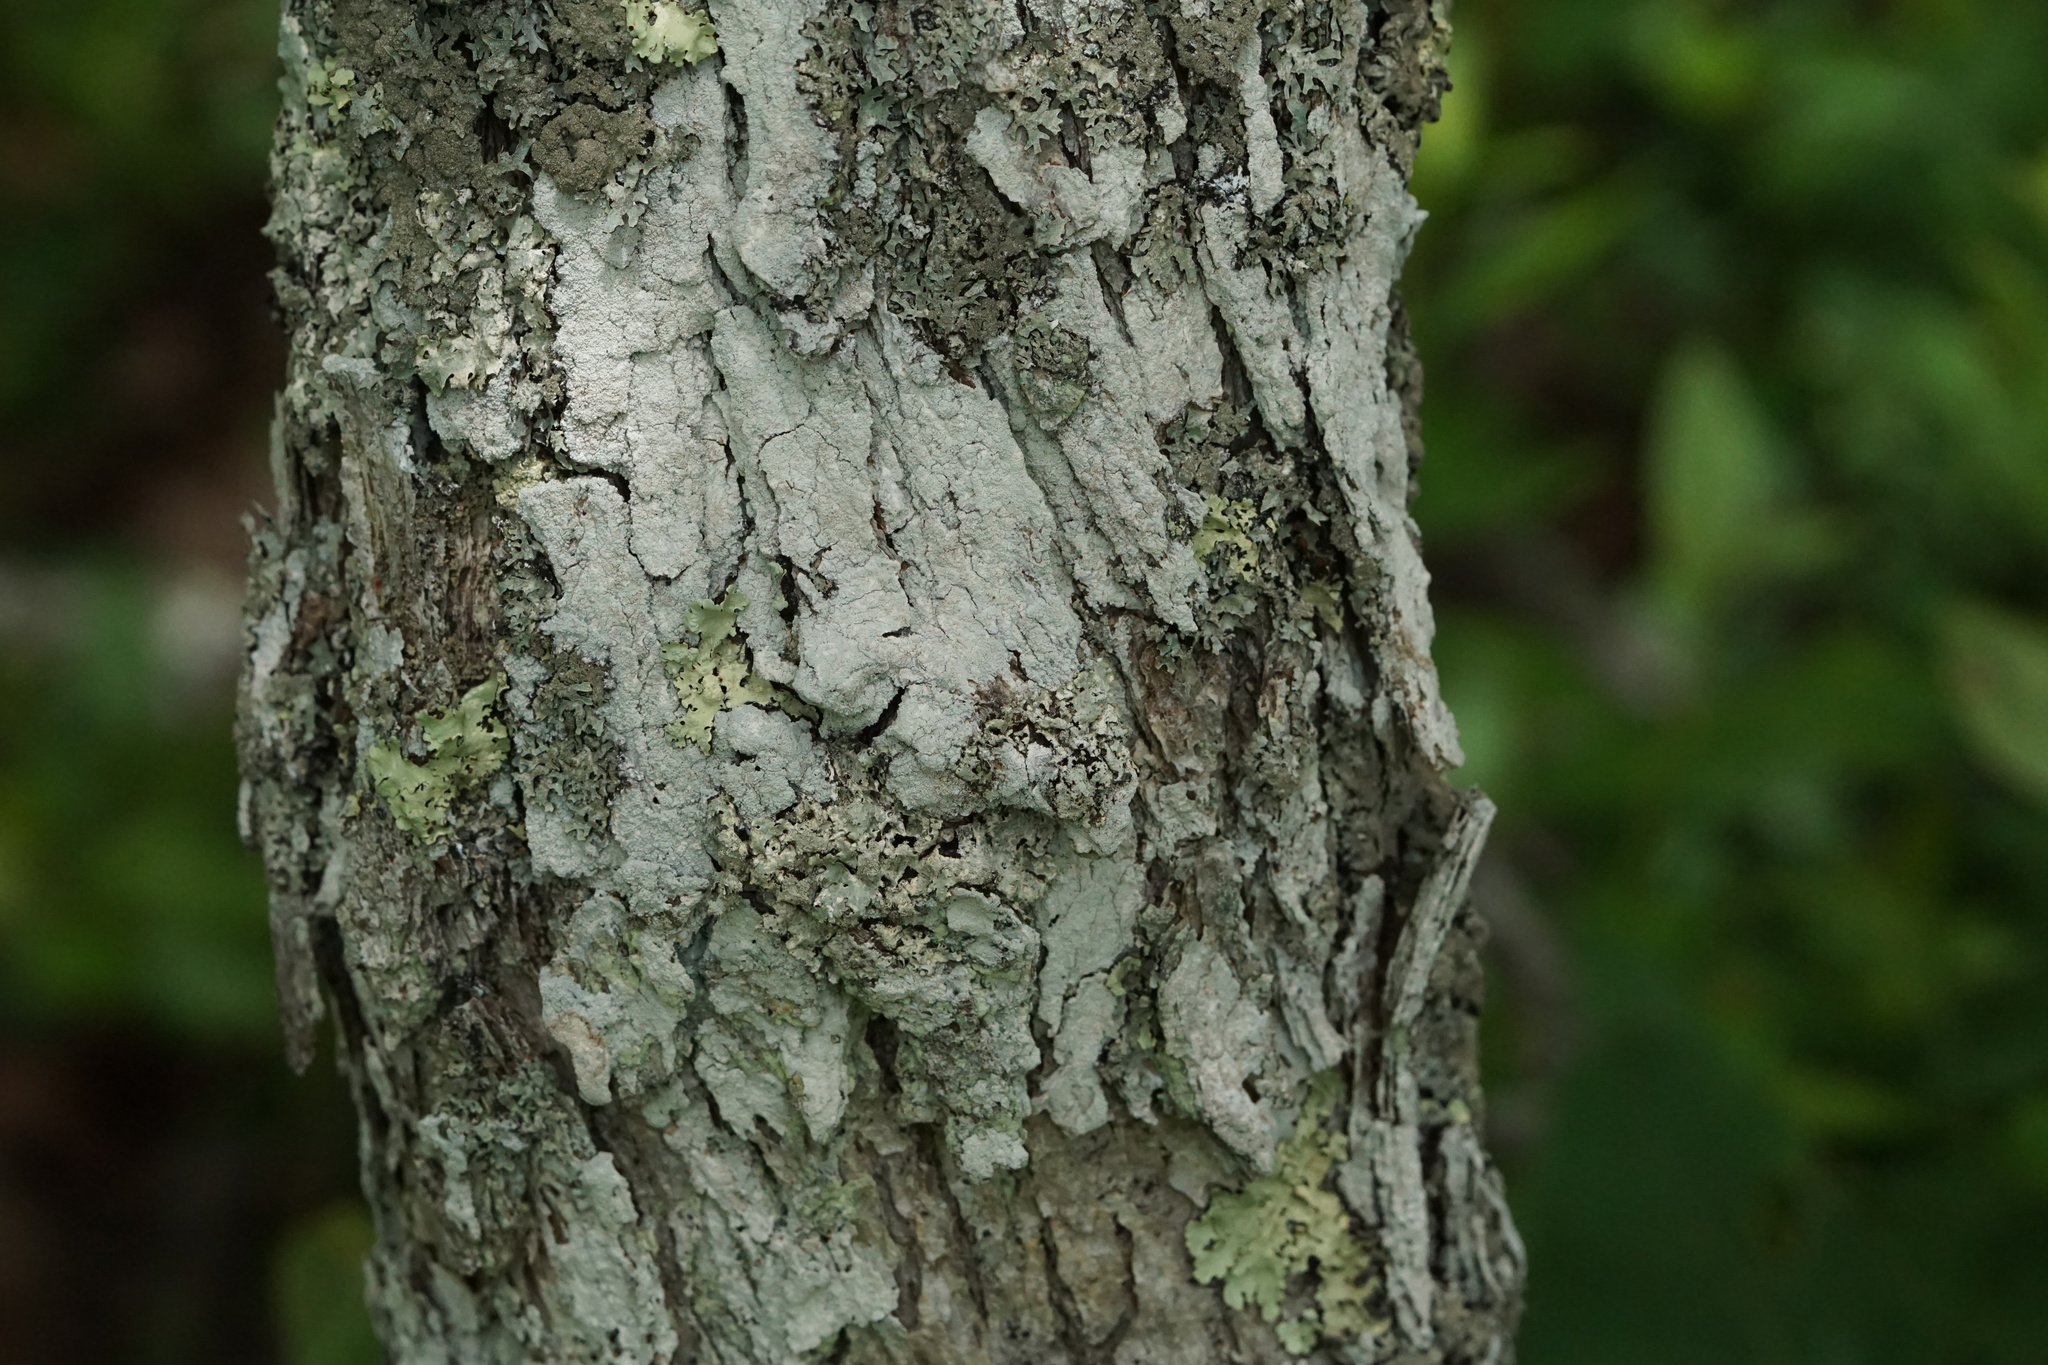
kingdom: Plantae
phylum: Tracheophyta
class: Magnoliopsida
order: Fagales
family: Fagaceae
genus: Quercus
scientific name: Quercus stellata
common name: Post oak
